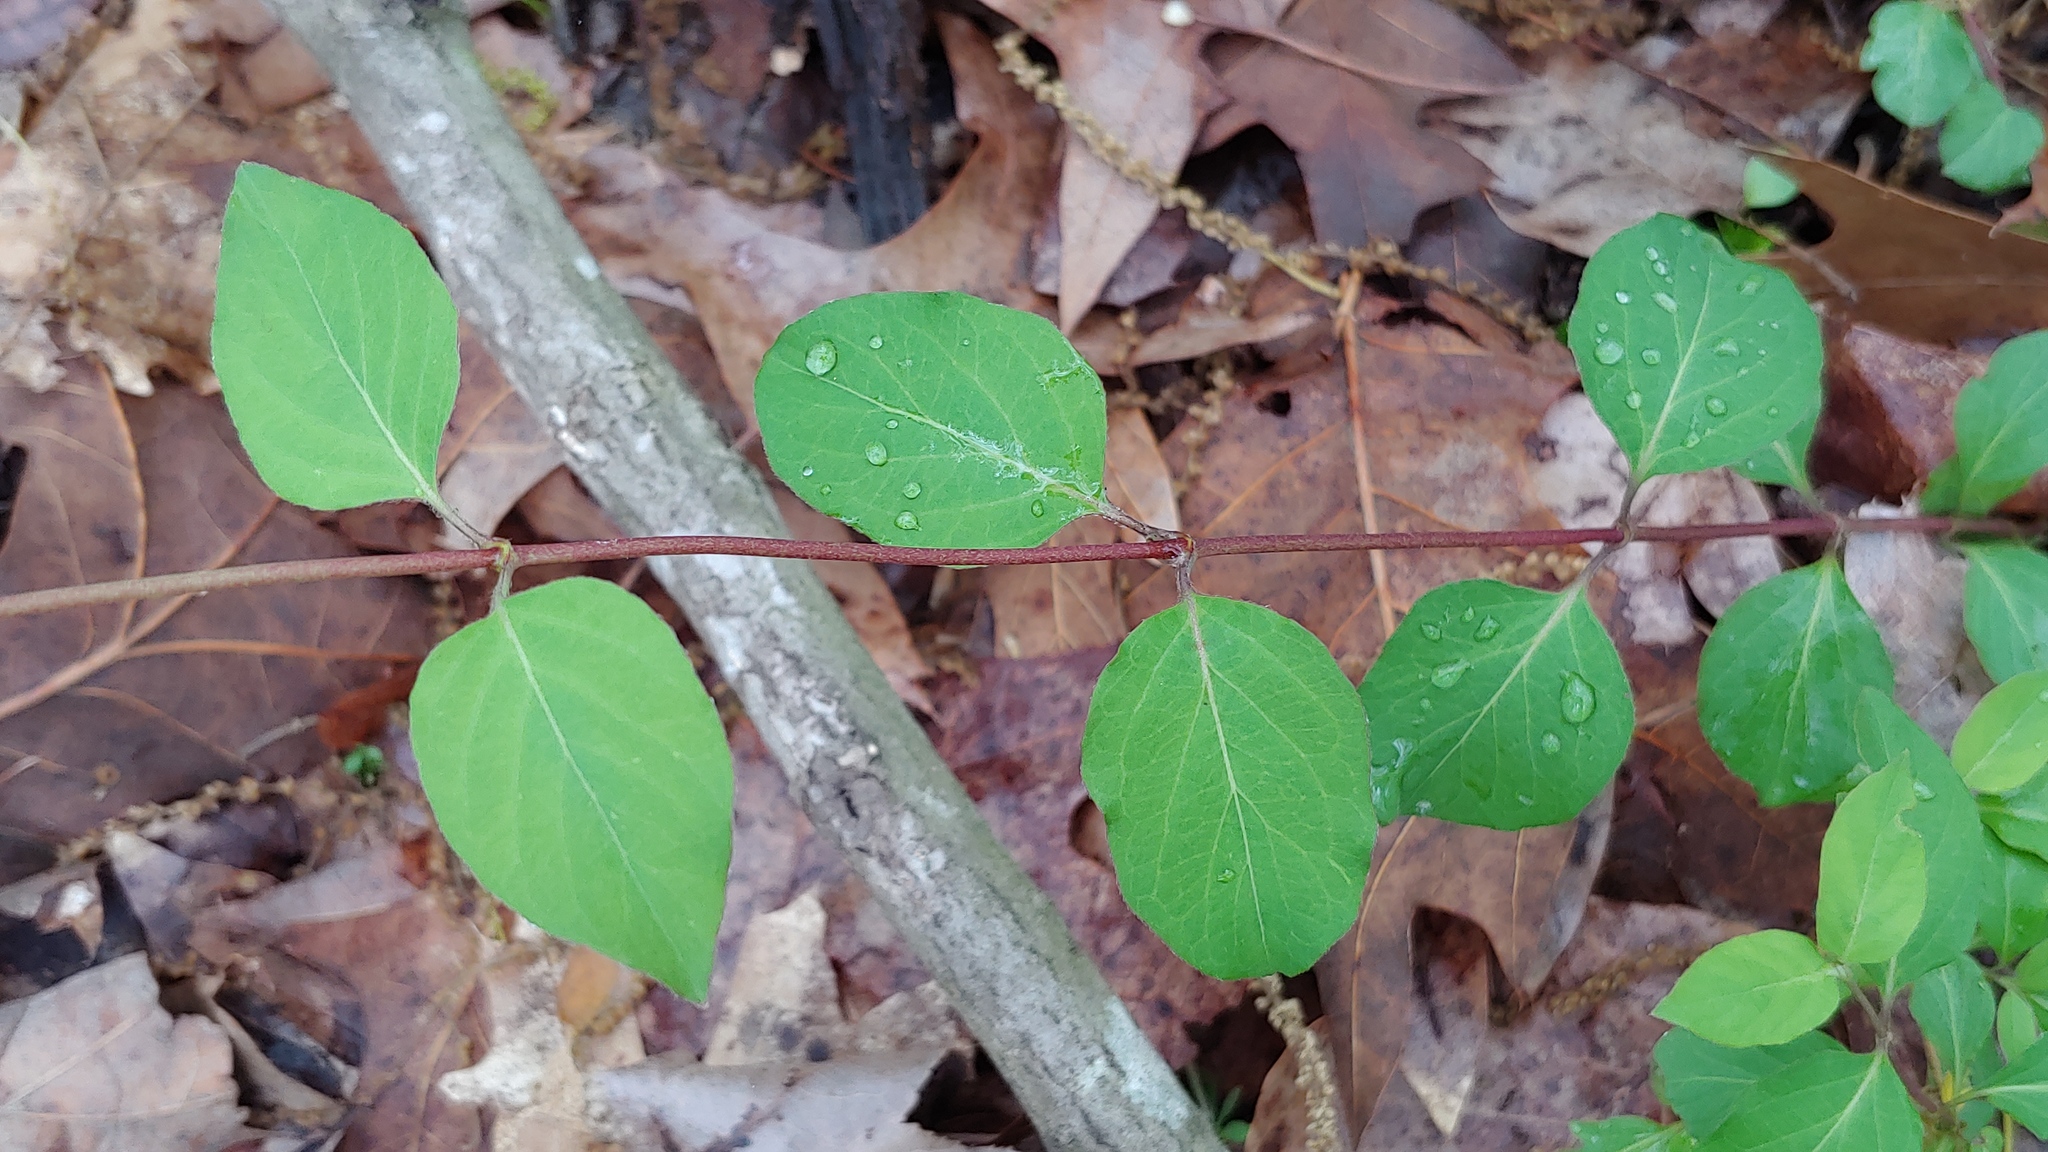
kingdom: Plantae
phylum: Tracheophyta
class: Magnoliopsida
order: Dipsacales
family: Caprifoliaceae
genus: Lonicera
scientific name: Lonicera japonica
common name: Japanese honeysuckle
